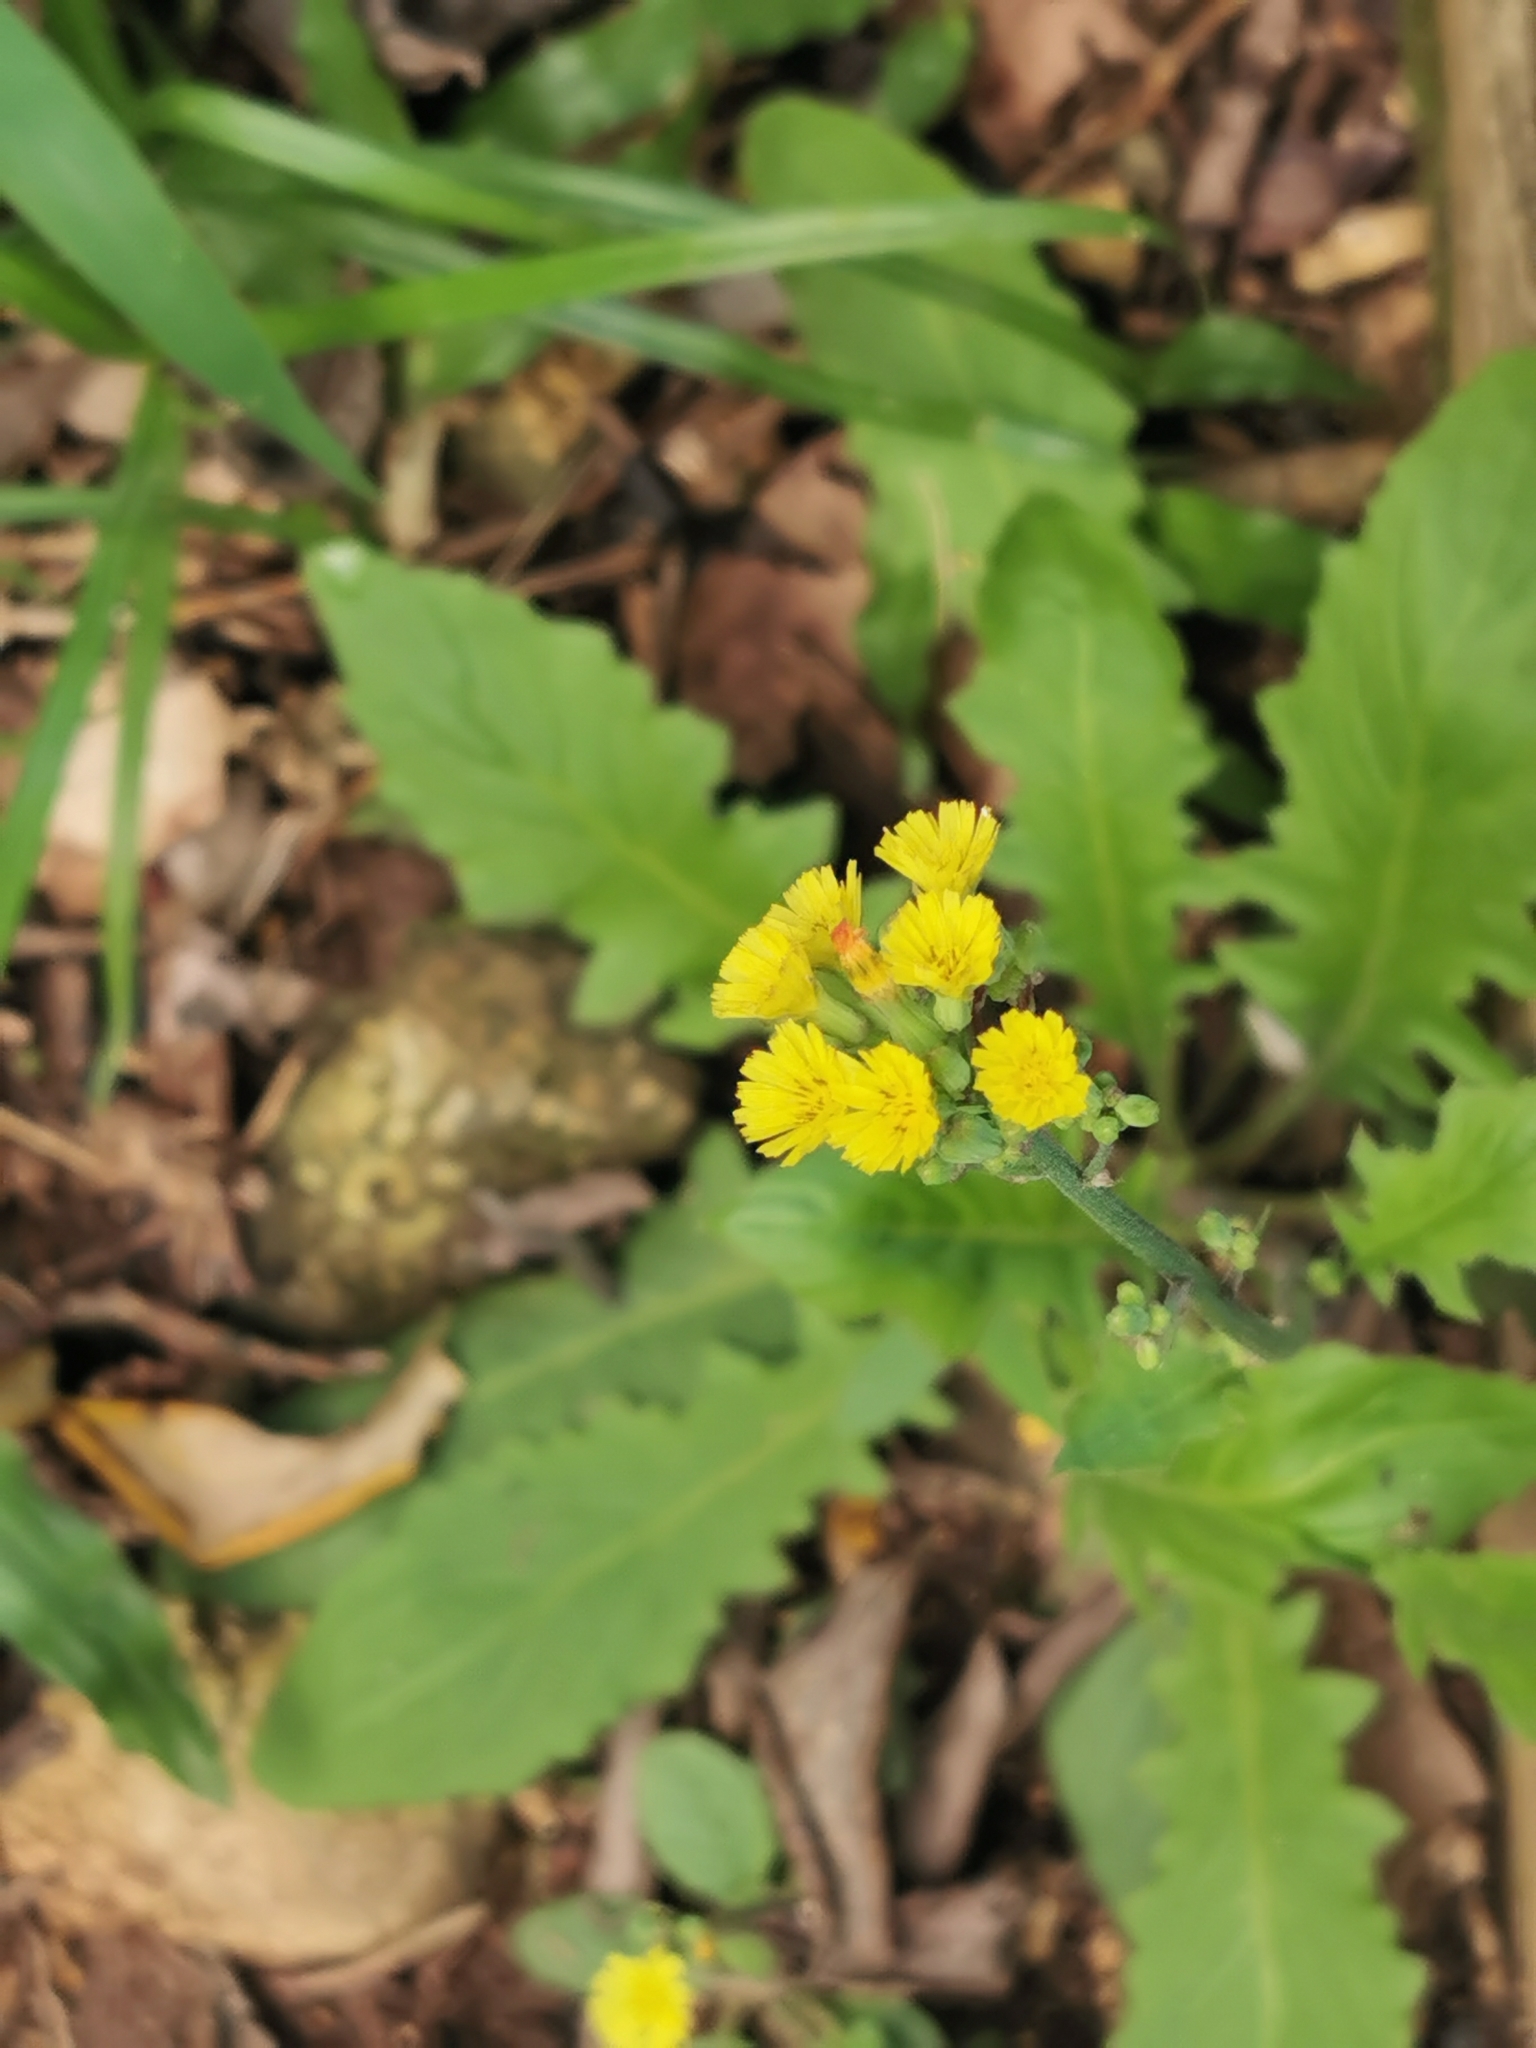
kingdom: Plantae
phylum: Tracheophyta
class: Magnoliopsida
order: Asterales
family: Asteraceae
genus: Youngia
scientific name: Youngia japonica
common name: Oriental false hawksbeard
